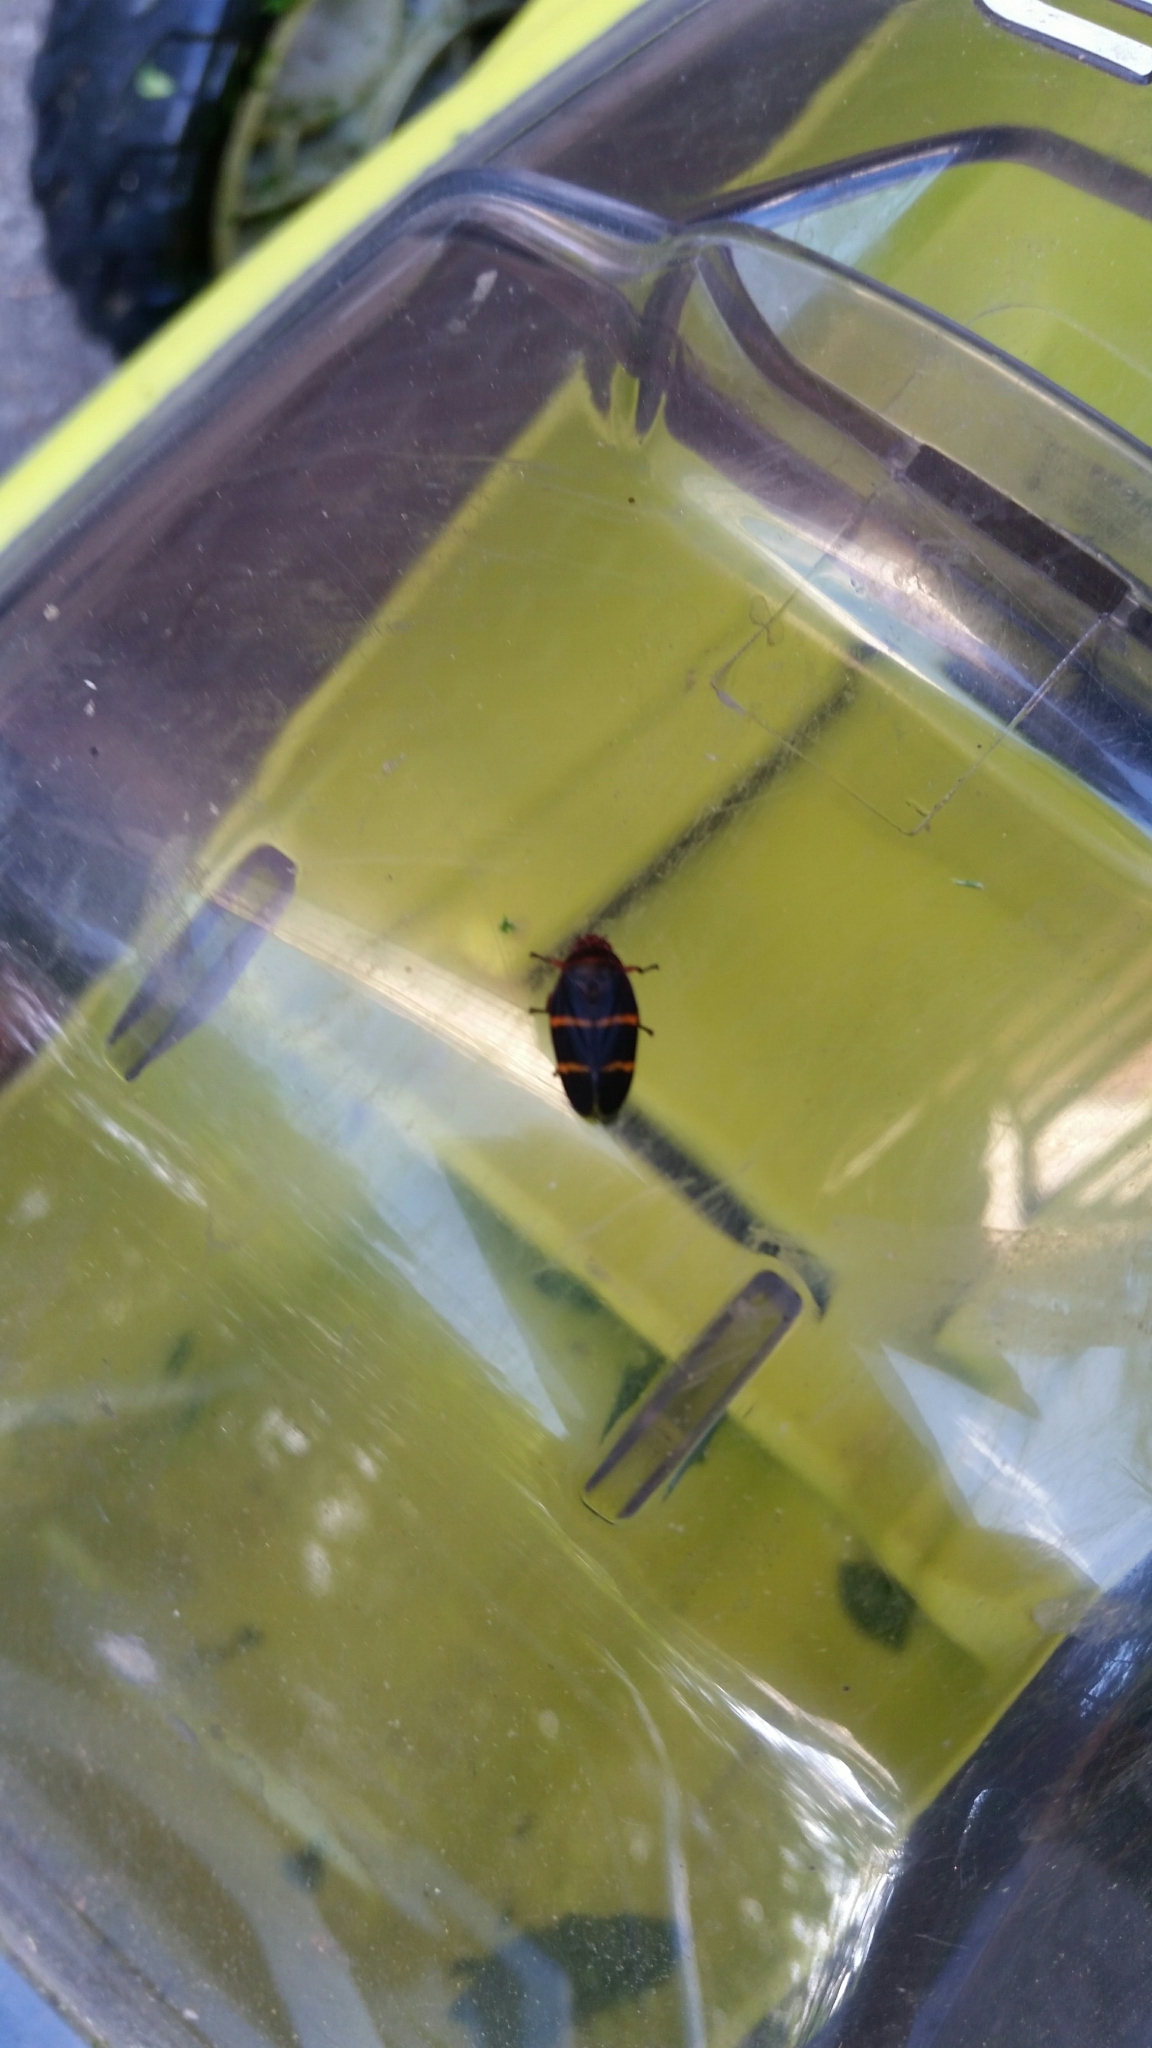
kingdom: Animalia
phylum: Arthropoda
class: Insecta
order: Hemiptera
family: Cercopidae
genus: Prosapia
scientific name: Prosapia bicincta
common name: Twolined spittlebug
